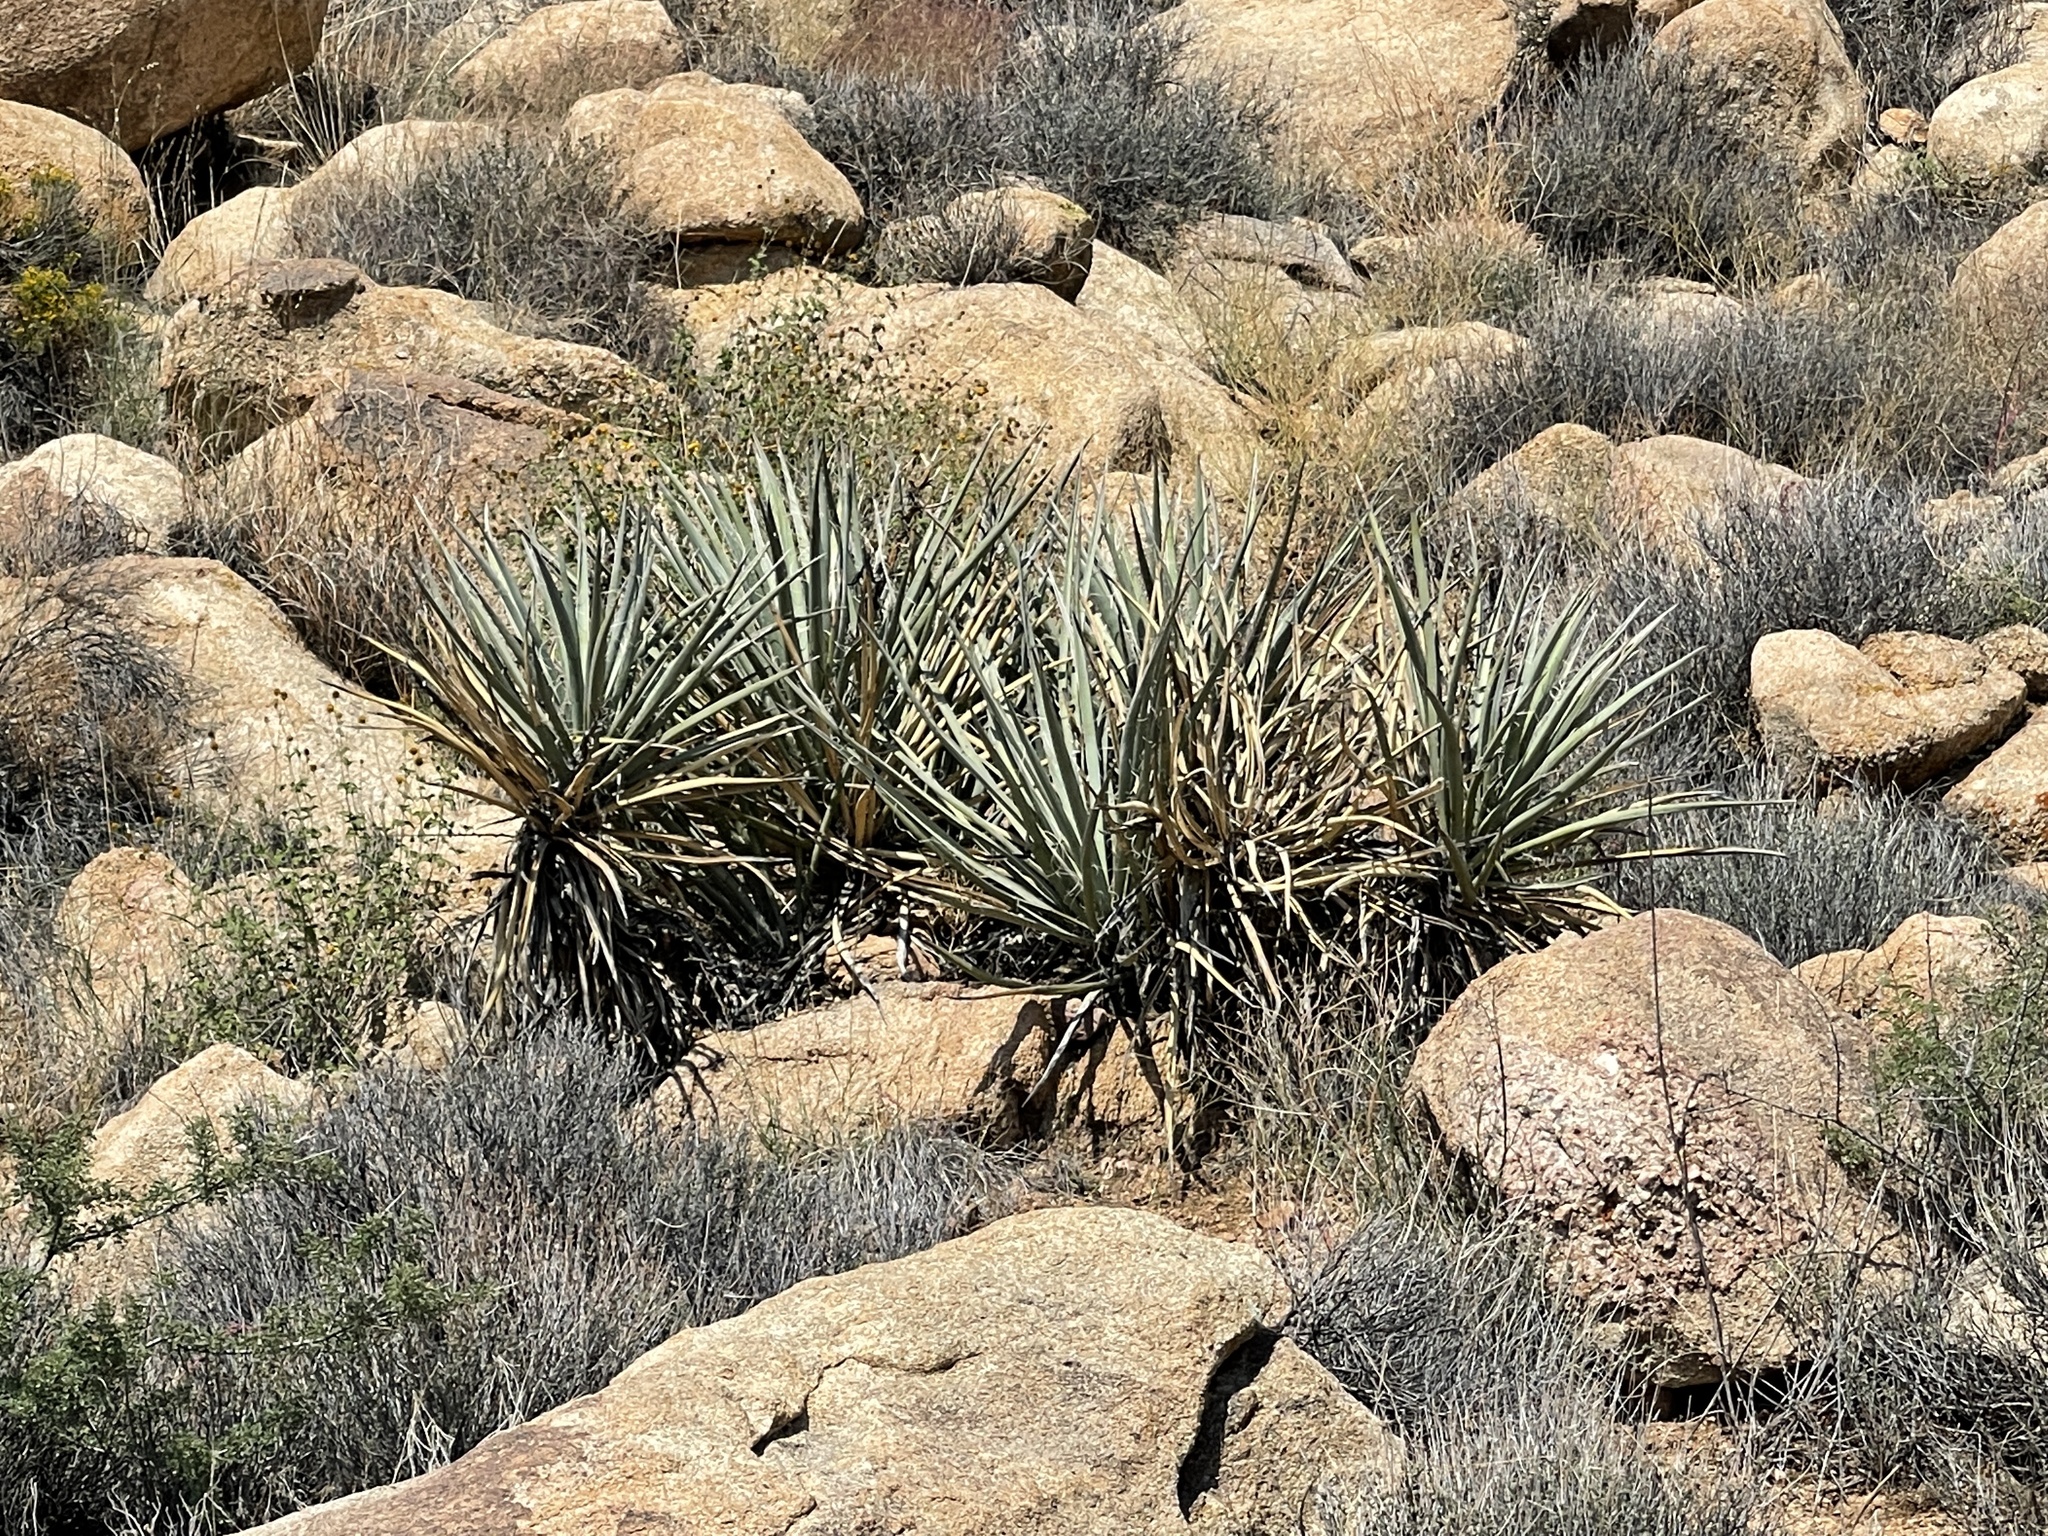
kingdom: Plantae
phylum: Tracheophyta
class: Liliopsida
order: Asparagales
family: Asparagaceae
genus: Yucca
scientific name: Yucca baccata
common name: Banana yucca
